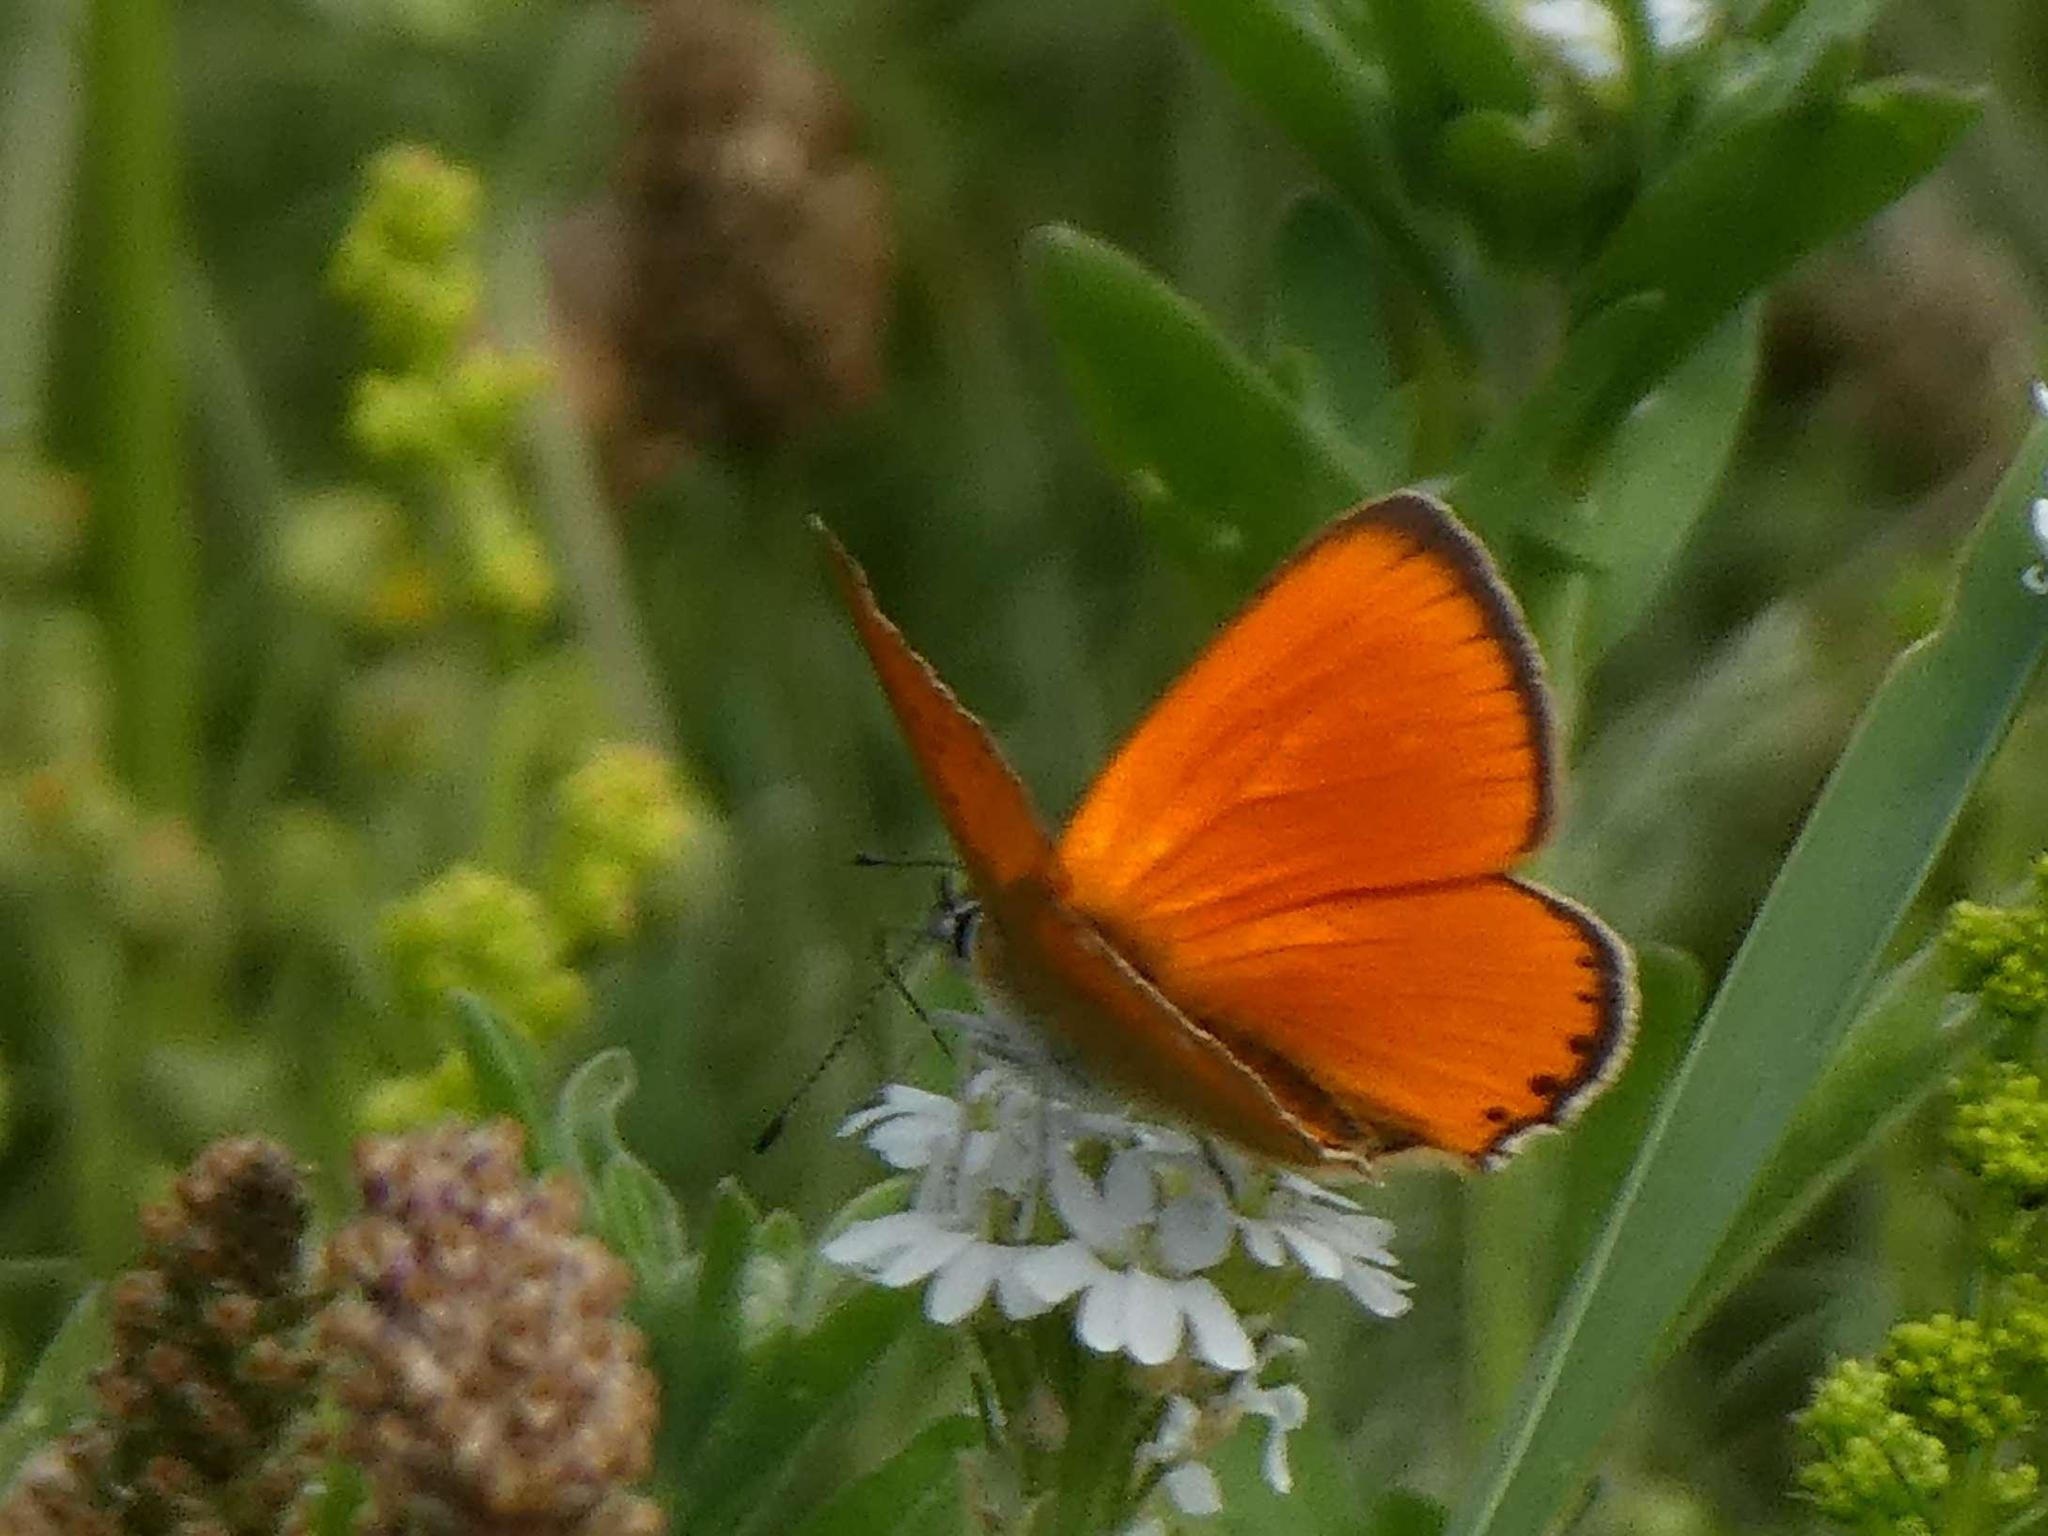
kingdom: Animalia
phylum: Arthropoda
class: Insecta
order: Lepidoptera
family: Lycaenidae
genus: Lycaena
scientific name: Lycaena virgaureae
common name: Scarce copper
